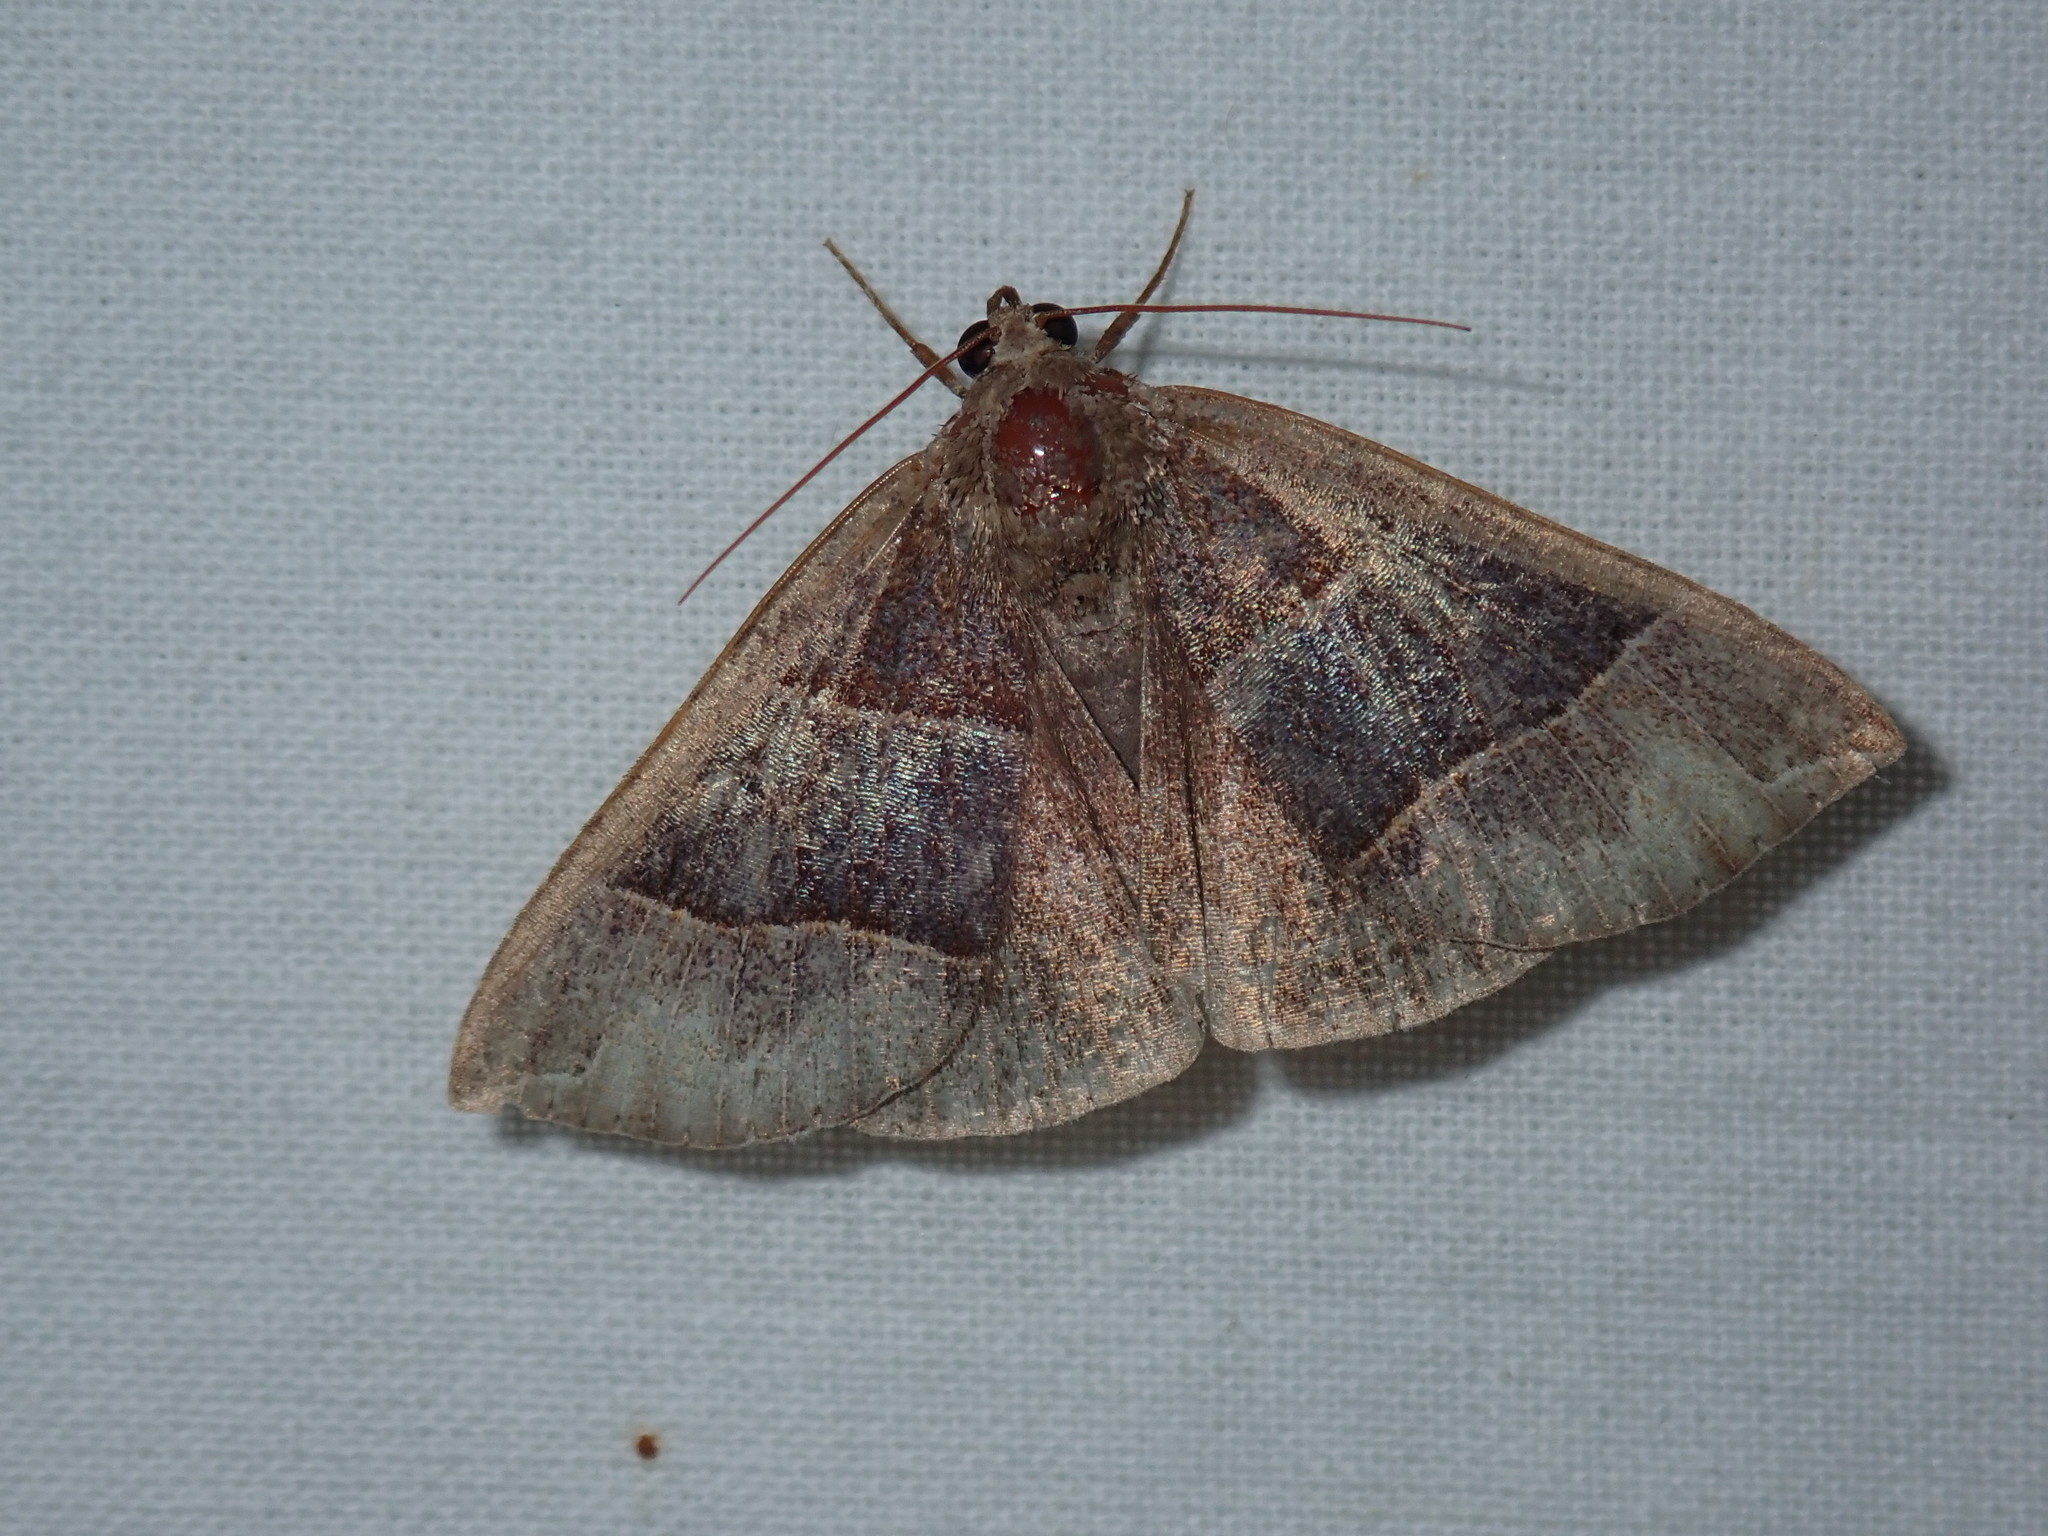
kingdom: Animalia
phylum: Arthropoda
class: Insecta
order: Lepidoptera
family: Erebidae
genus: Parallelia
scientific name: Parallelia bistriaris
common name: Maple looper moth
